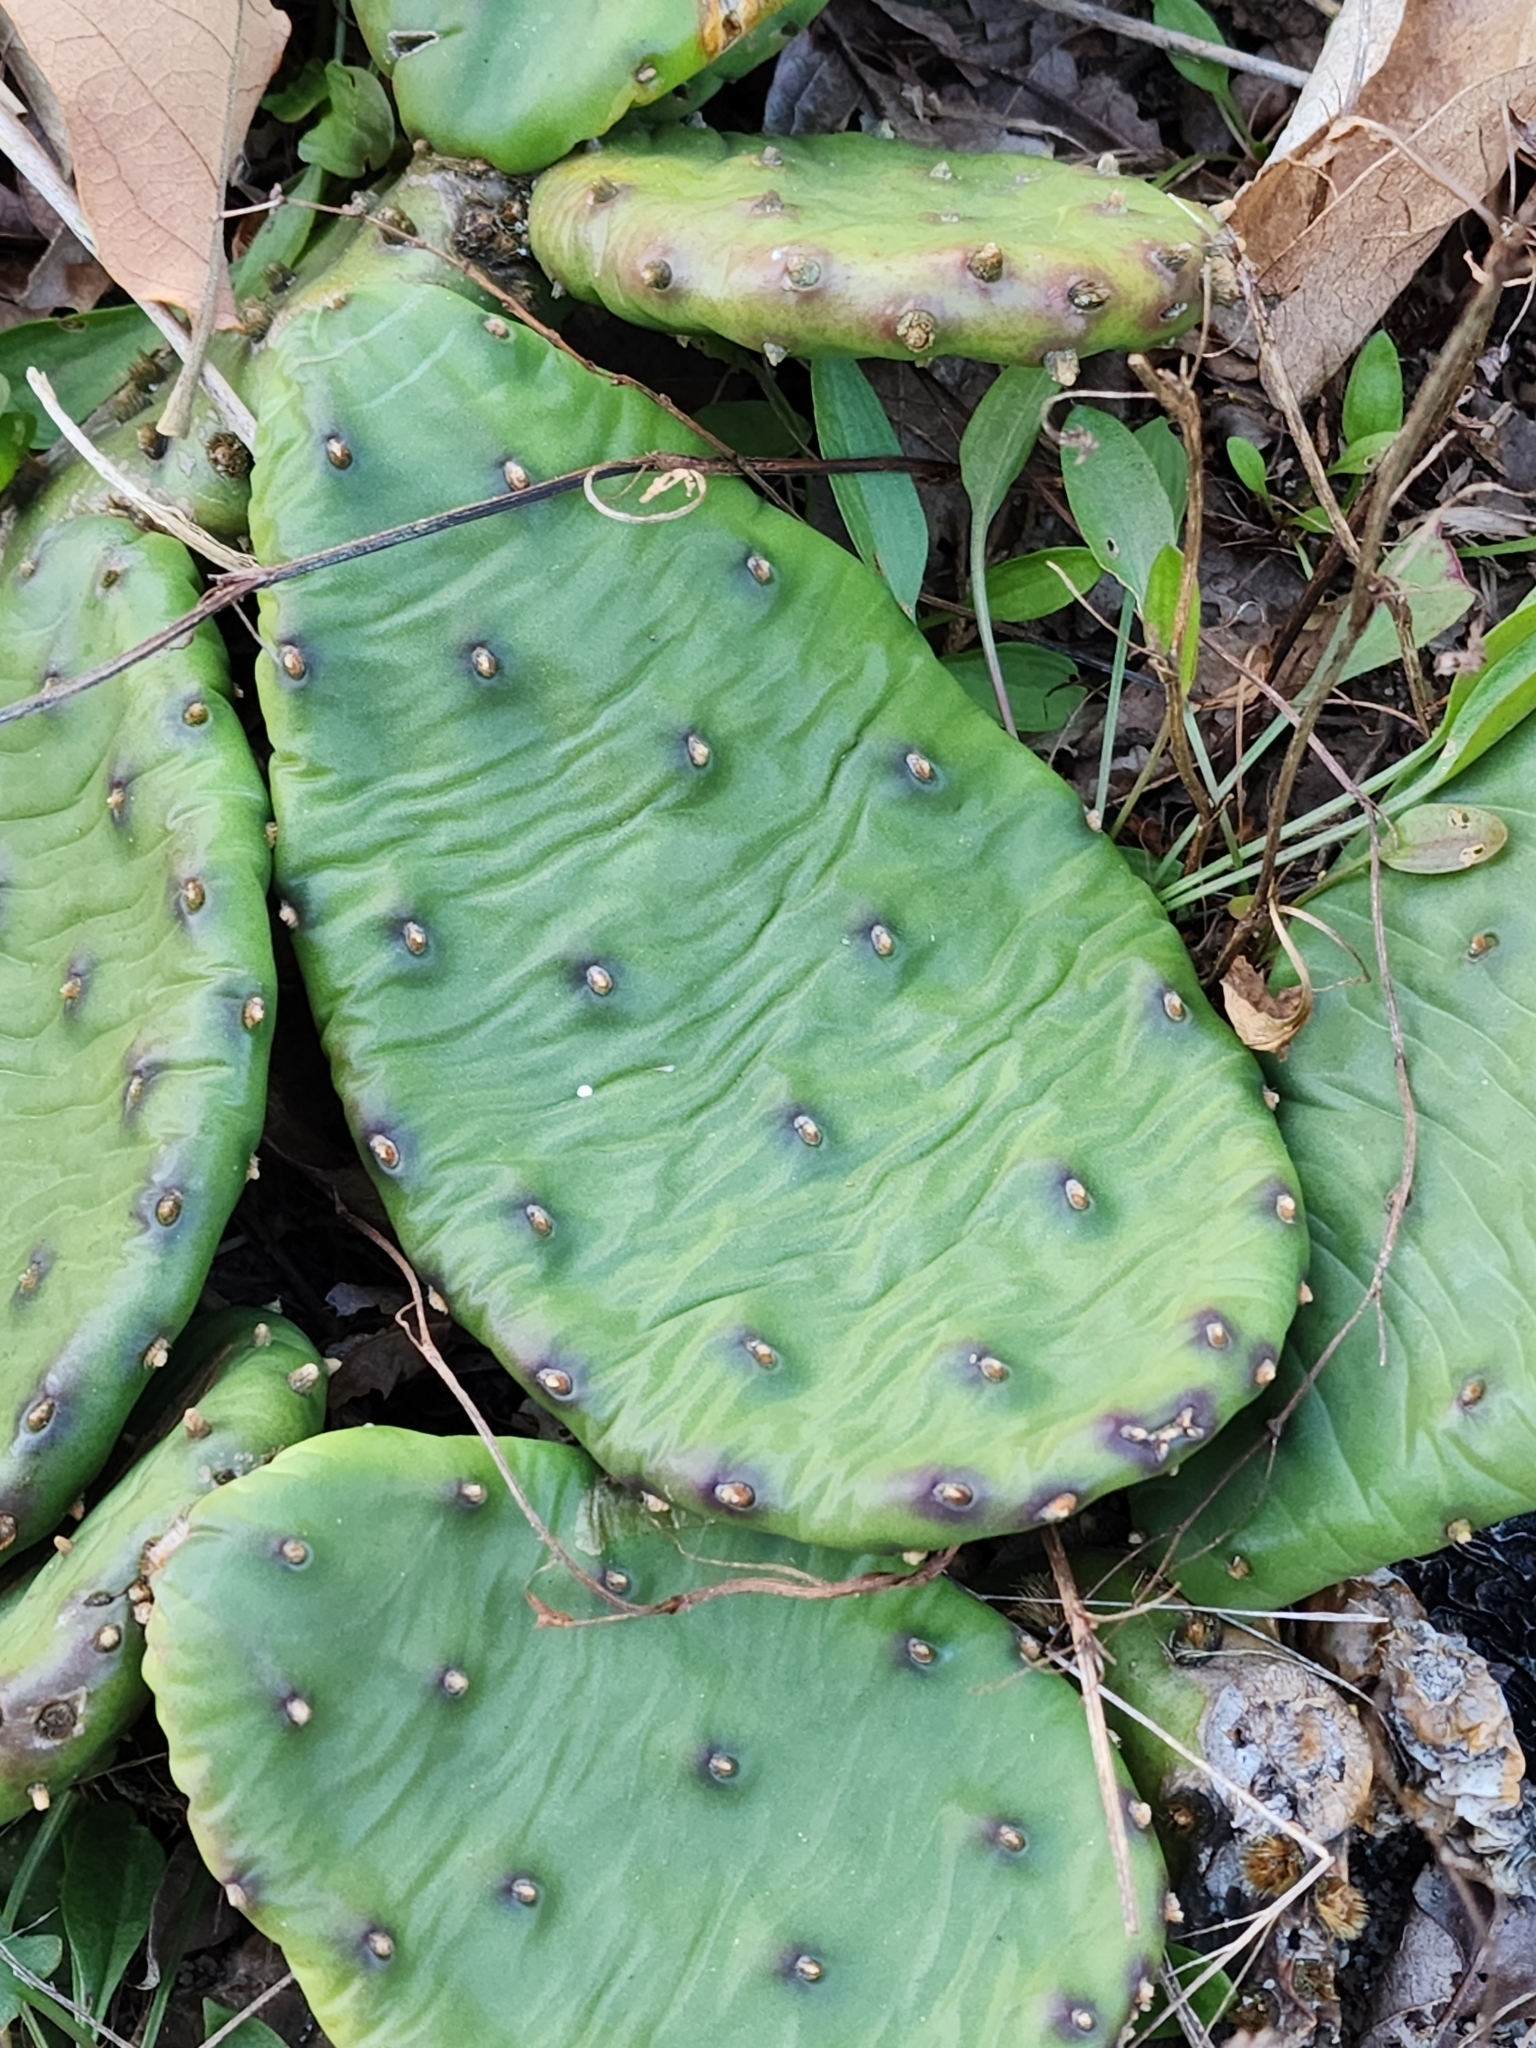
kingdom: Plantae
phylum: Tracheophyta
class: Magnoliopsida
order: Caryophyllales
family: Cactaceae
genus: Opuntia
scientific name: Opuntia humifusa
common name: Eastern prickly-pear
